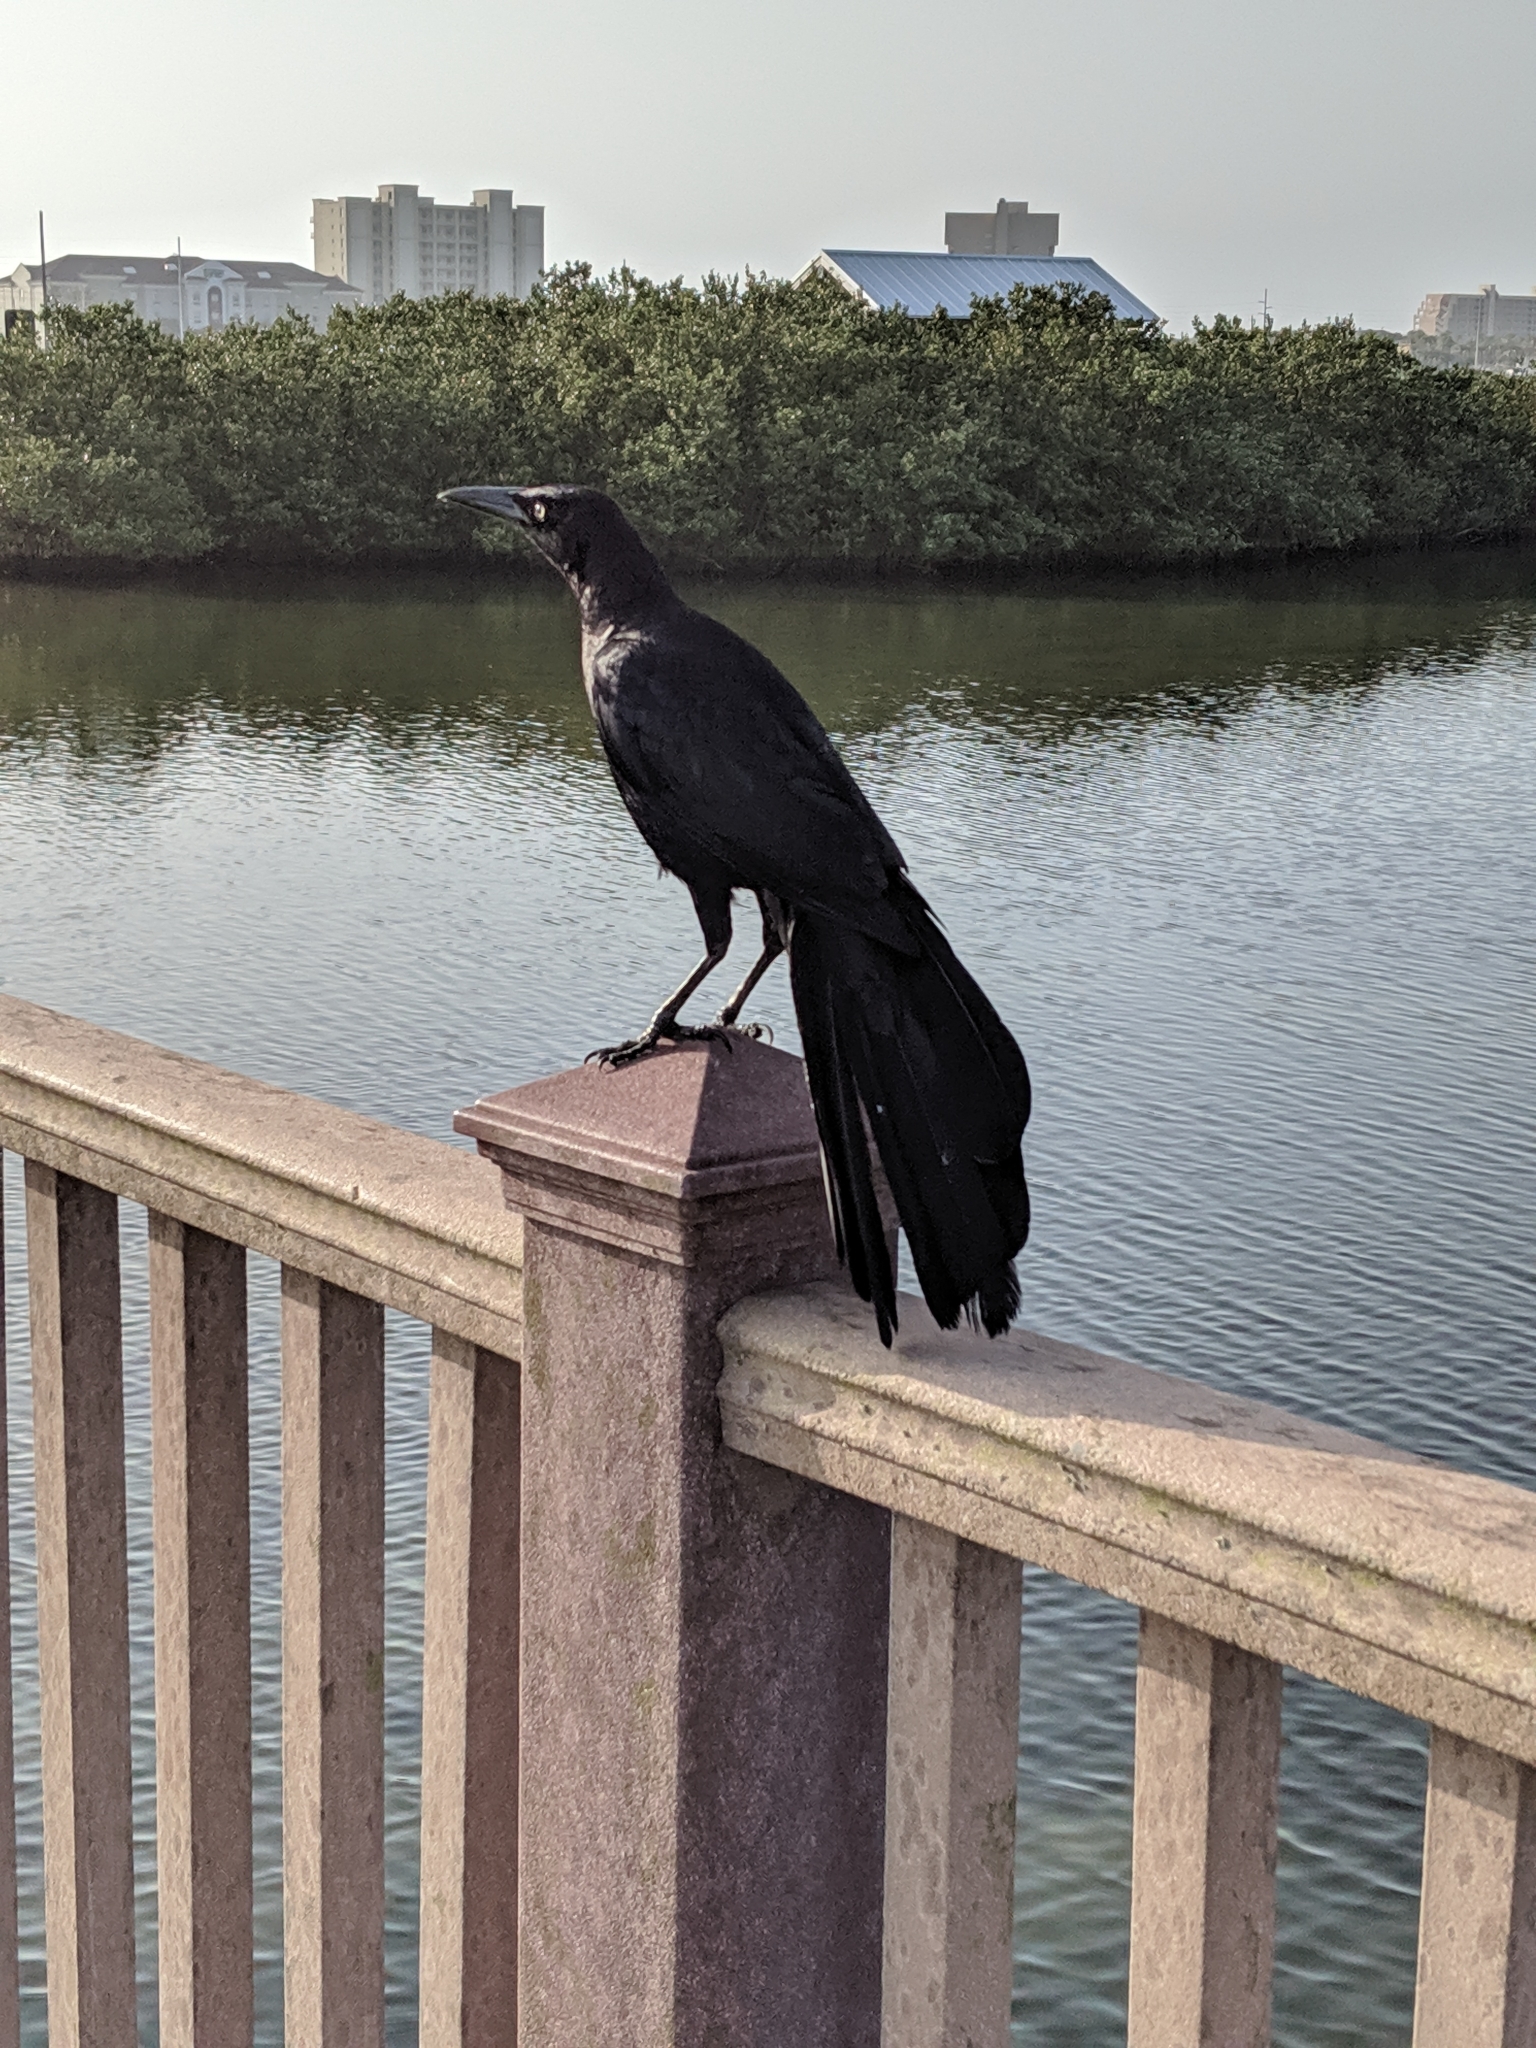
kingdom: Animalia
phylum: Chordata
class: Aves
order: Passeriformes
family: Icteridae
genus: Quiscalus
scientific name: Quiscalus mexicanus
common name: Great-tailed grackle
